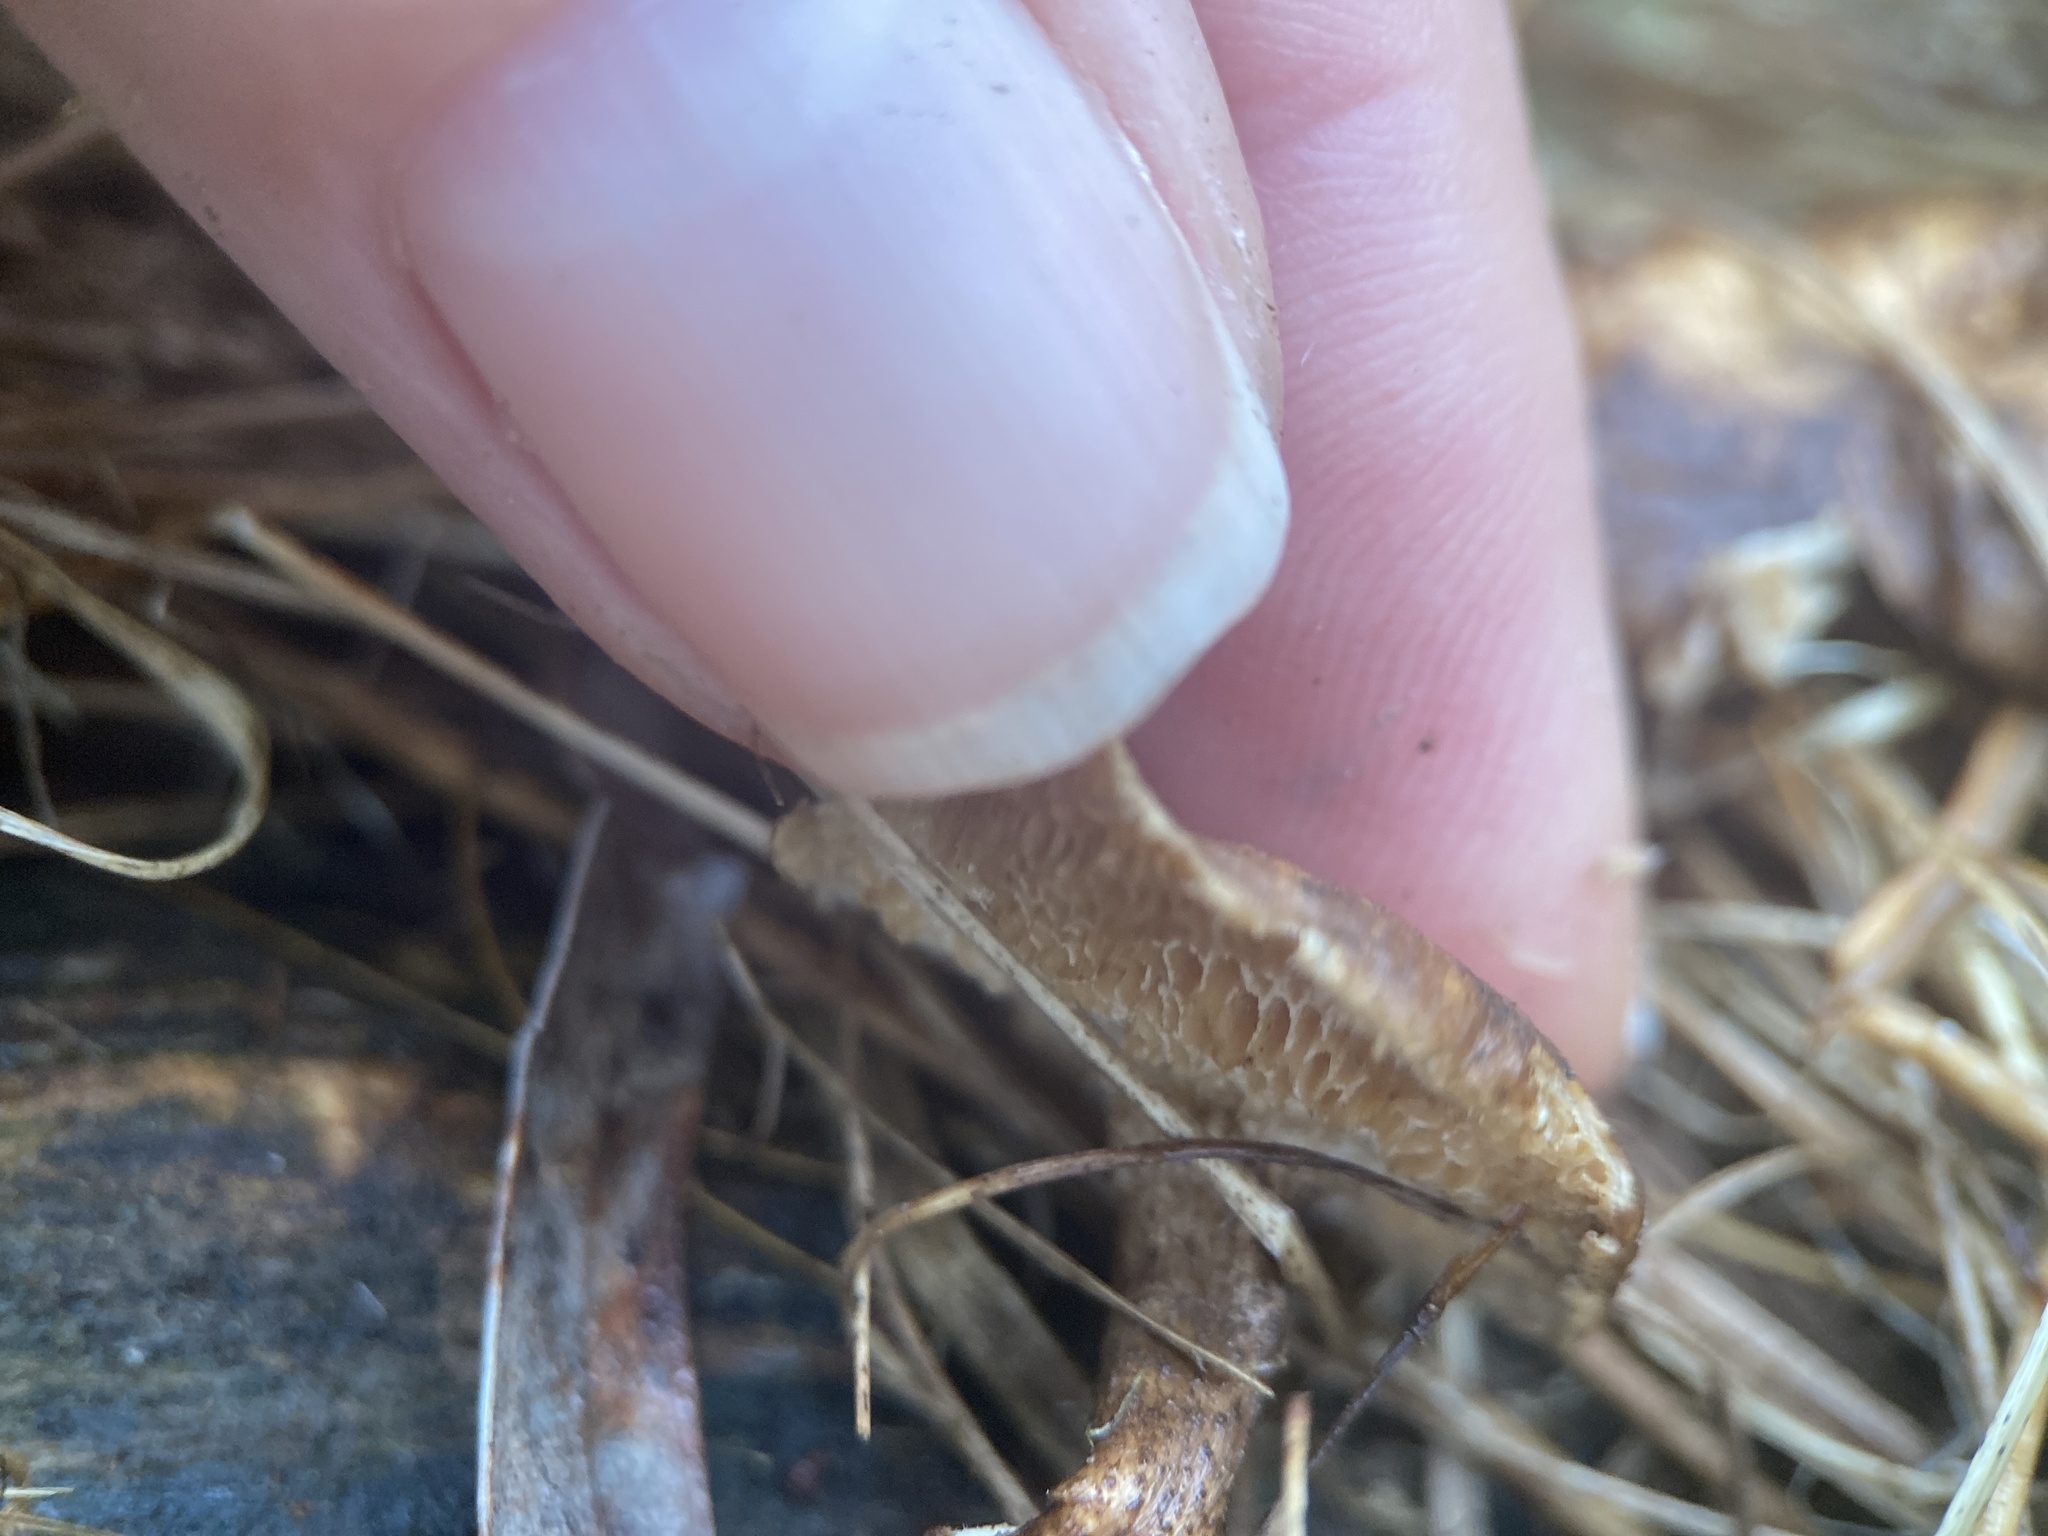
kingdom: Fungi
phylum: Basidiomycota
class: Agaricomycetes
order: Polyporales
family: Polyporaceae
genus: Lentinus
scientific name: Lentinus arcularius
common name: Spring polypore
